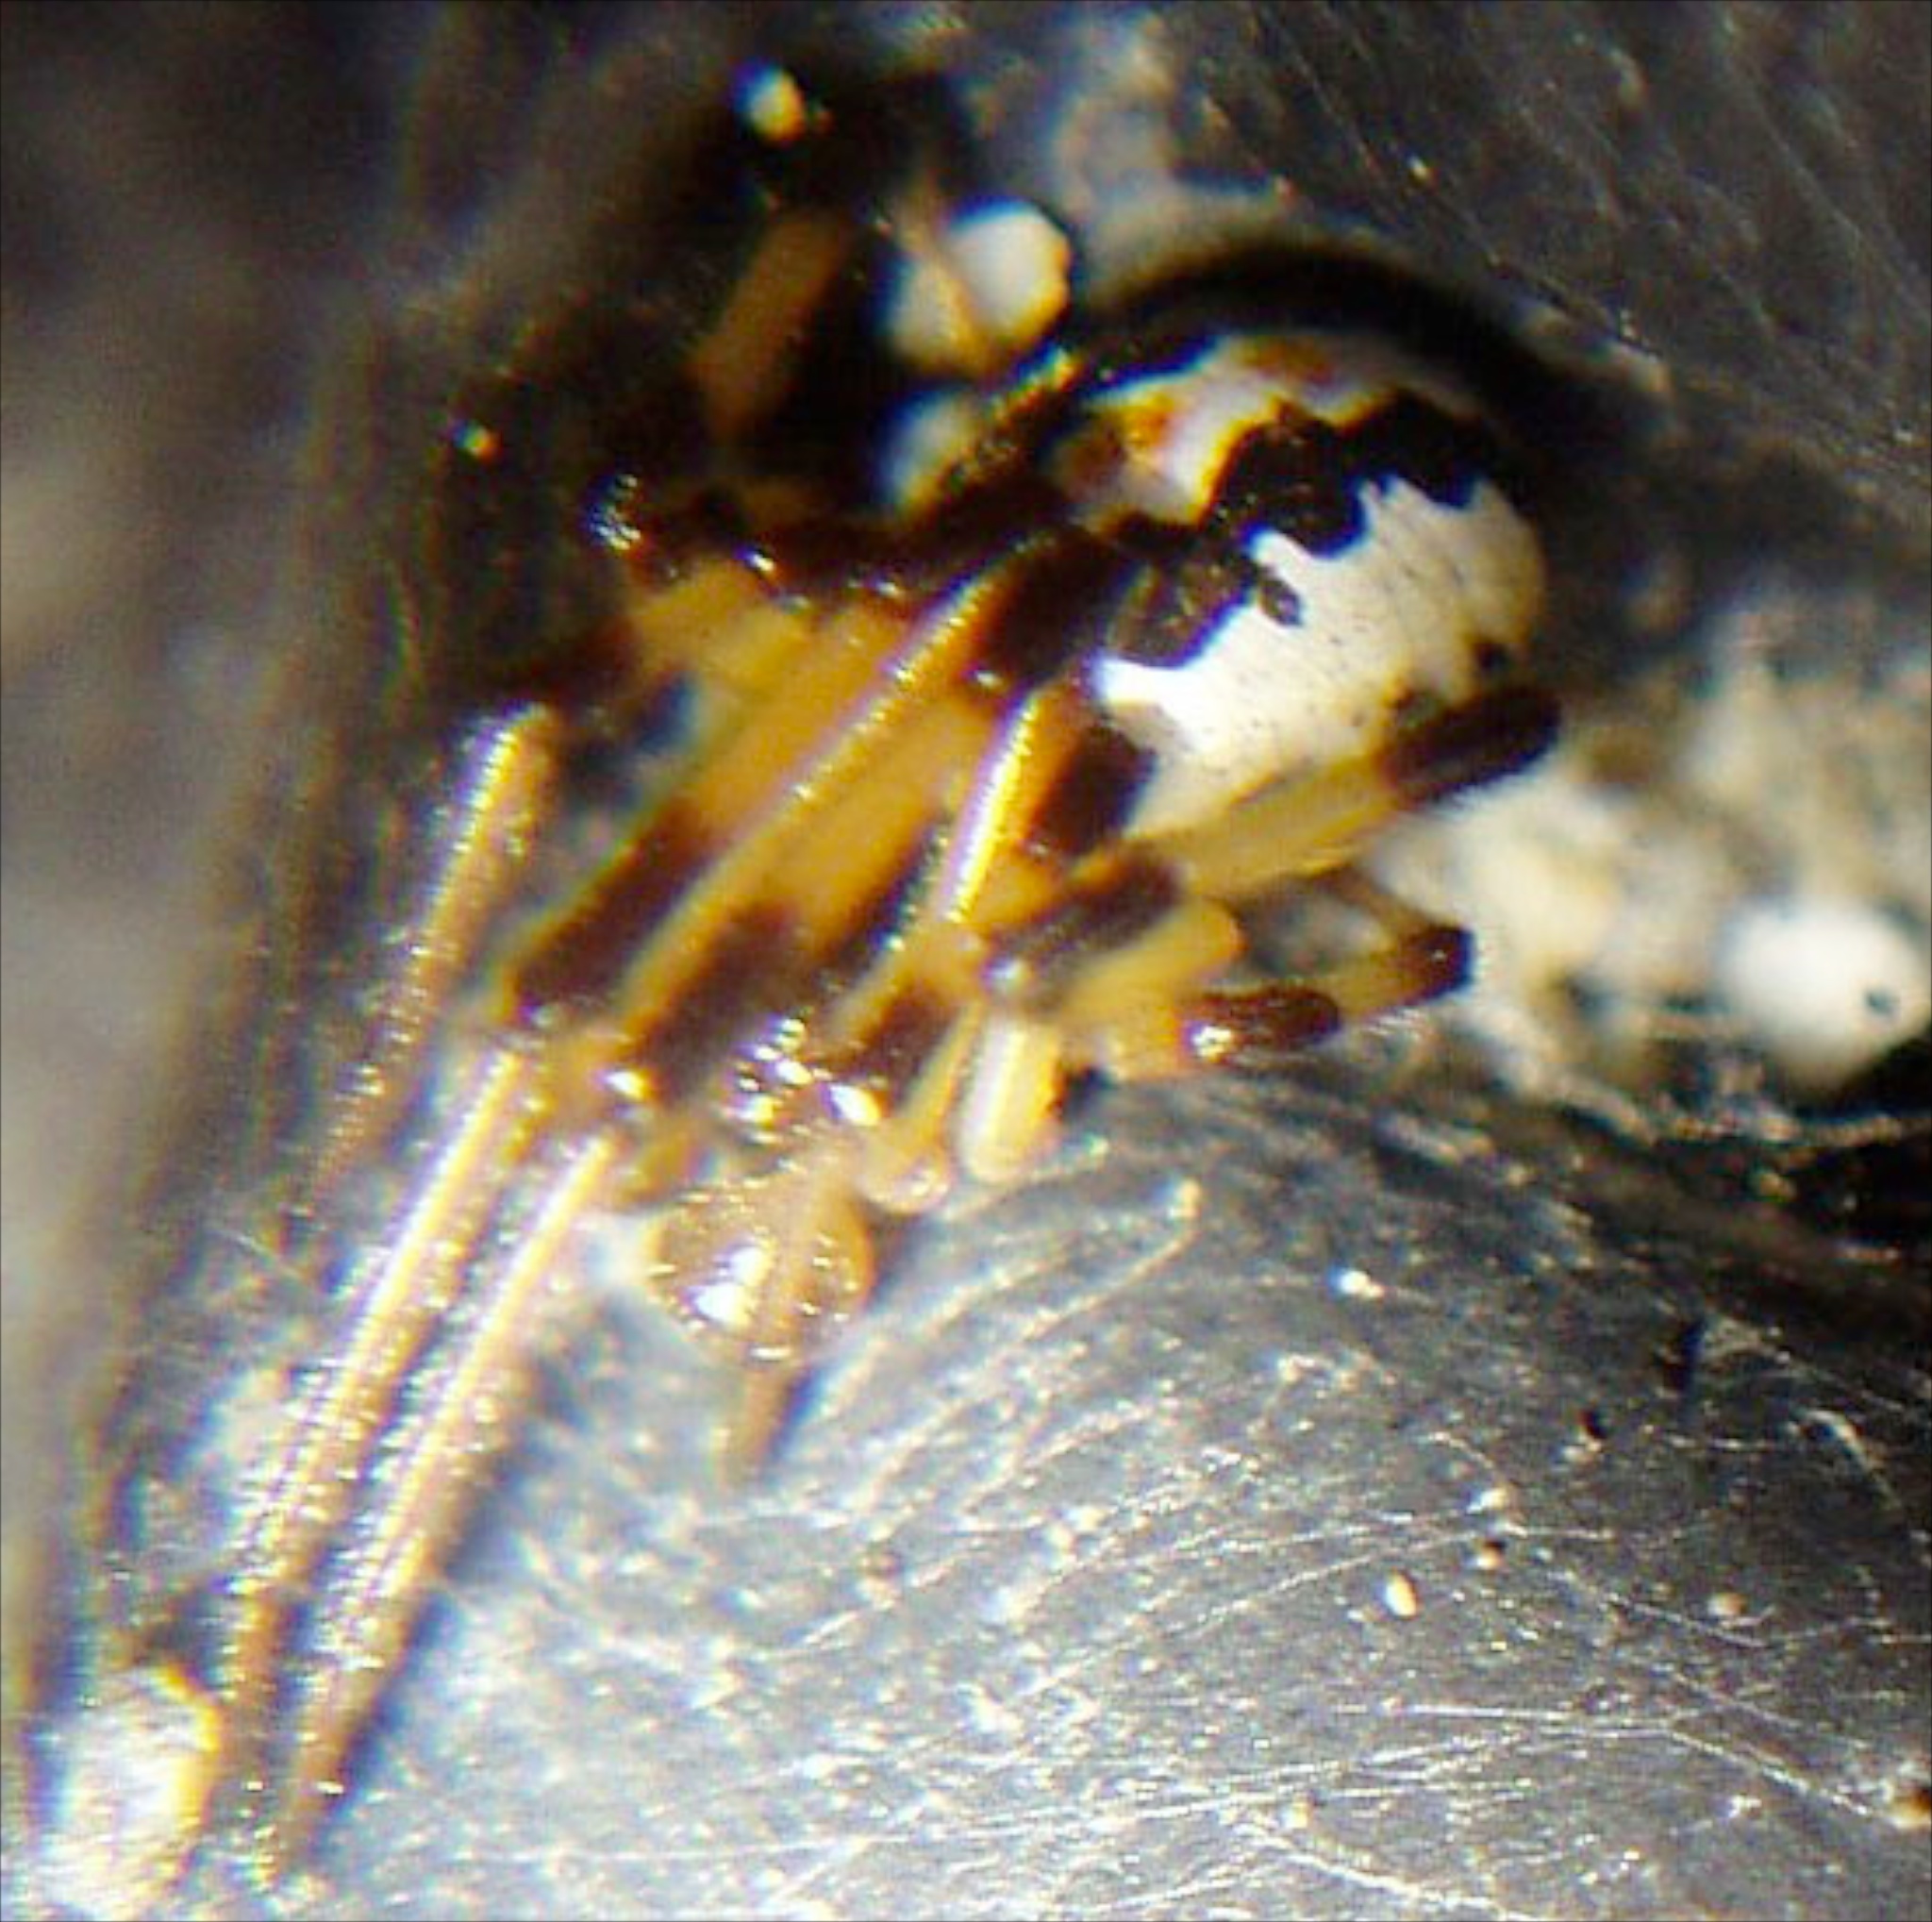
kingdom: Animalia
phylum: Arthropoda
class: Arachnida
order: Araneae
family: Theridiidae
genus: Latrodectus
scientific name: Latrodectus katipo
